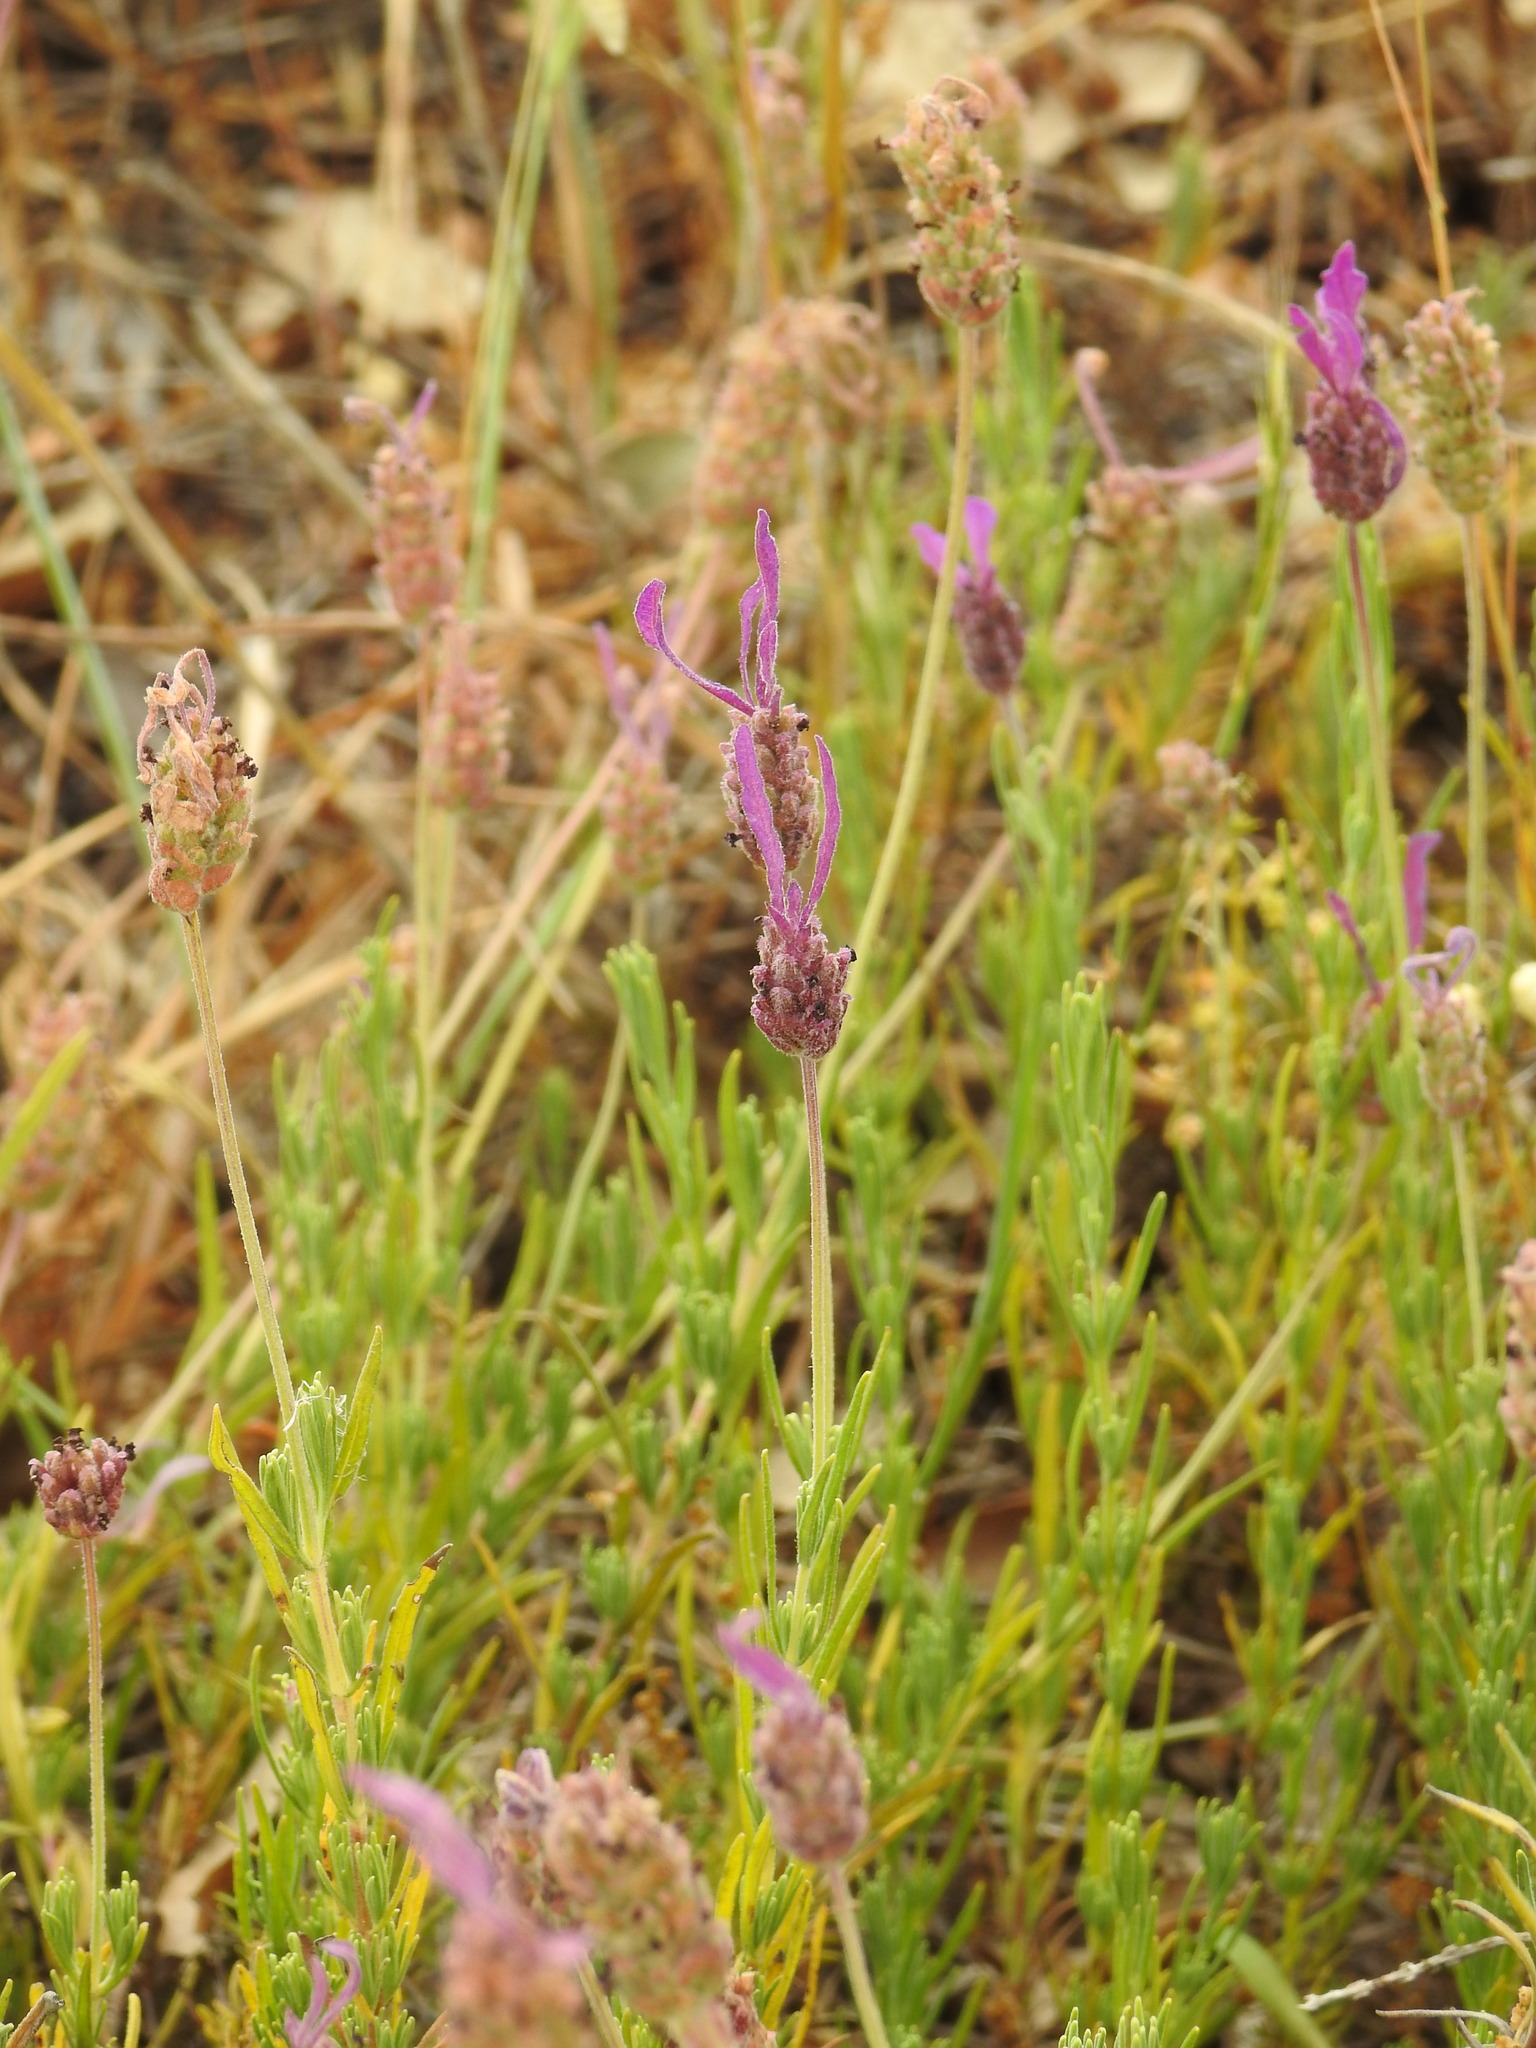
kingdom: Plantae
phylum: Tracheophyta
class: Magnoliopsida
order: Lamiales
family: Lamiaceae
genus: Lavandula
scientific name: Lavandula pedunculata
